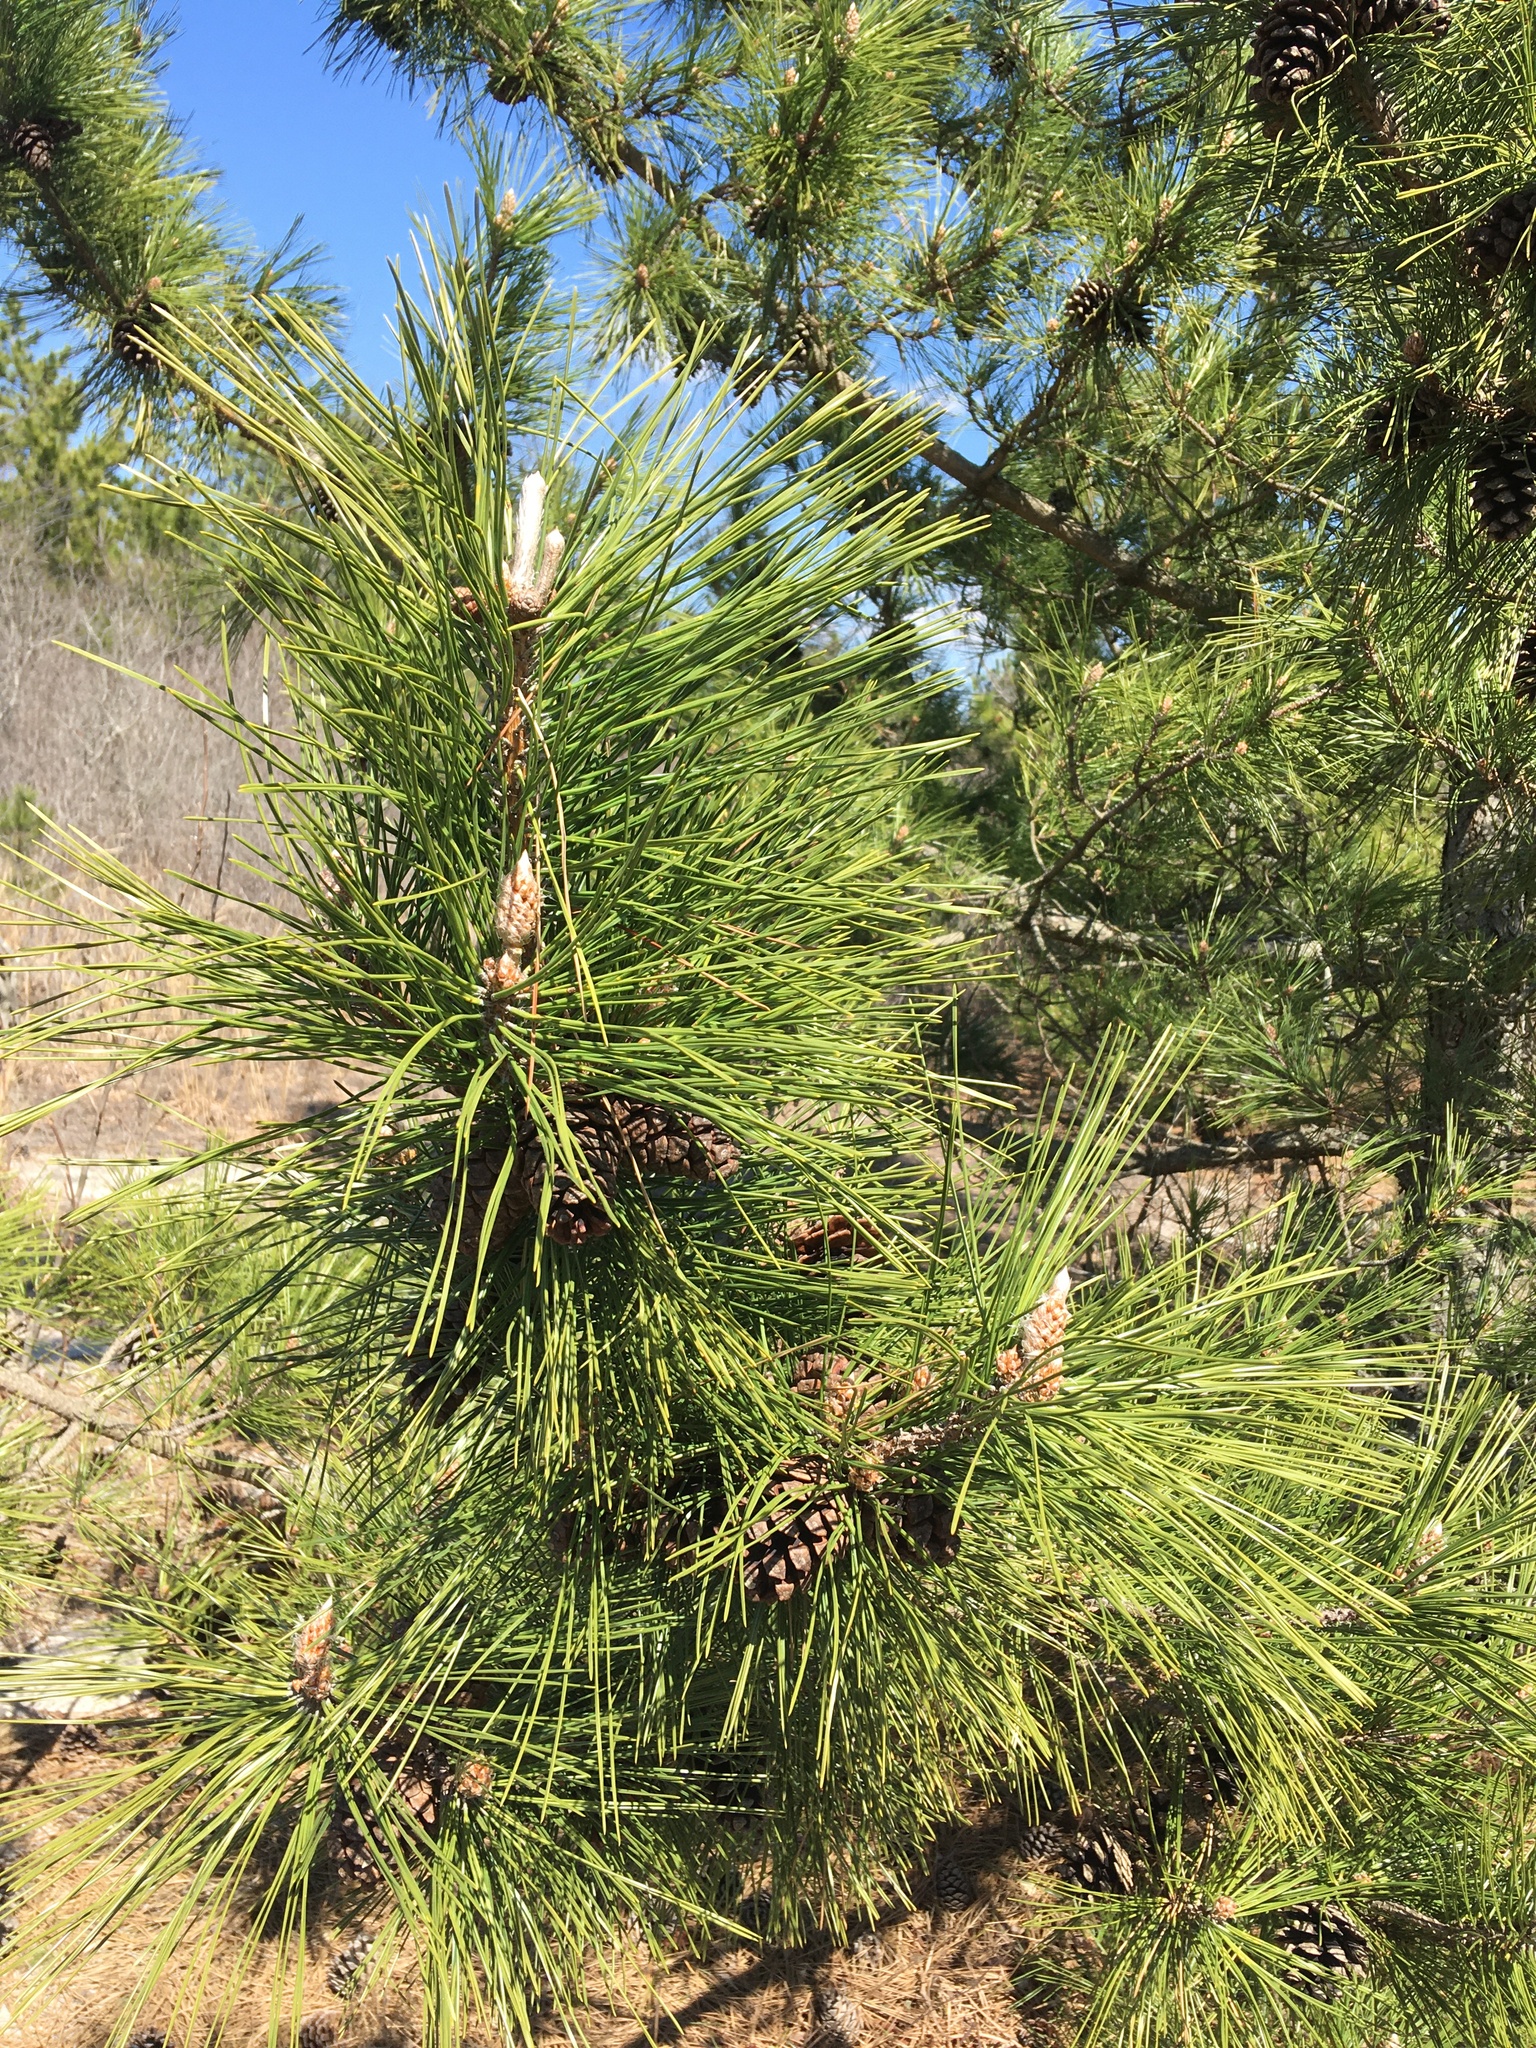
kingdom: Plantae
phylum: Tracheophyta
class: Pinopsida
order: Pinales
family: Pinaceae
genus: Pinus
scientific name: Pinus resinosa
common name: Norway pine
